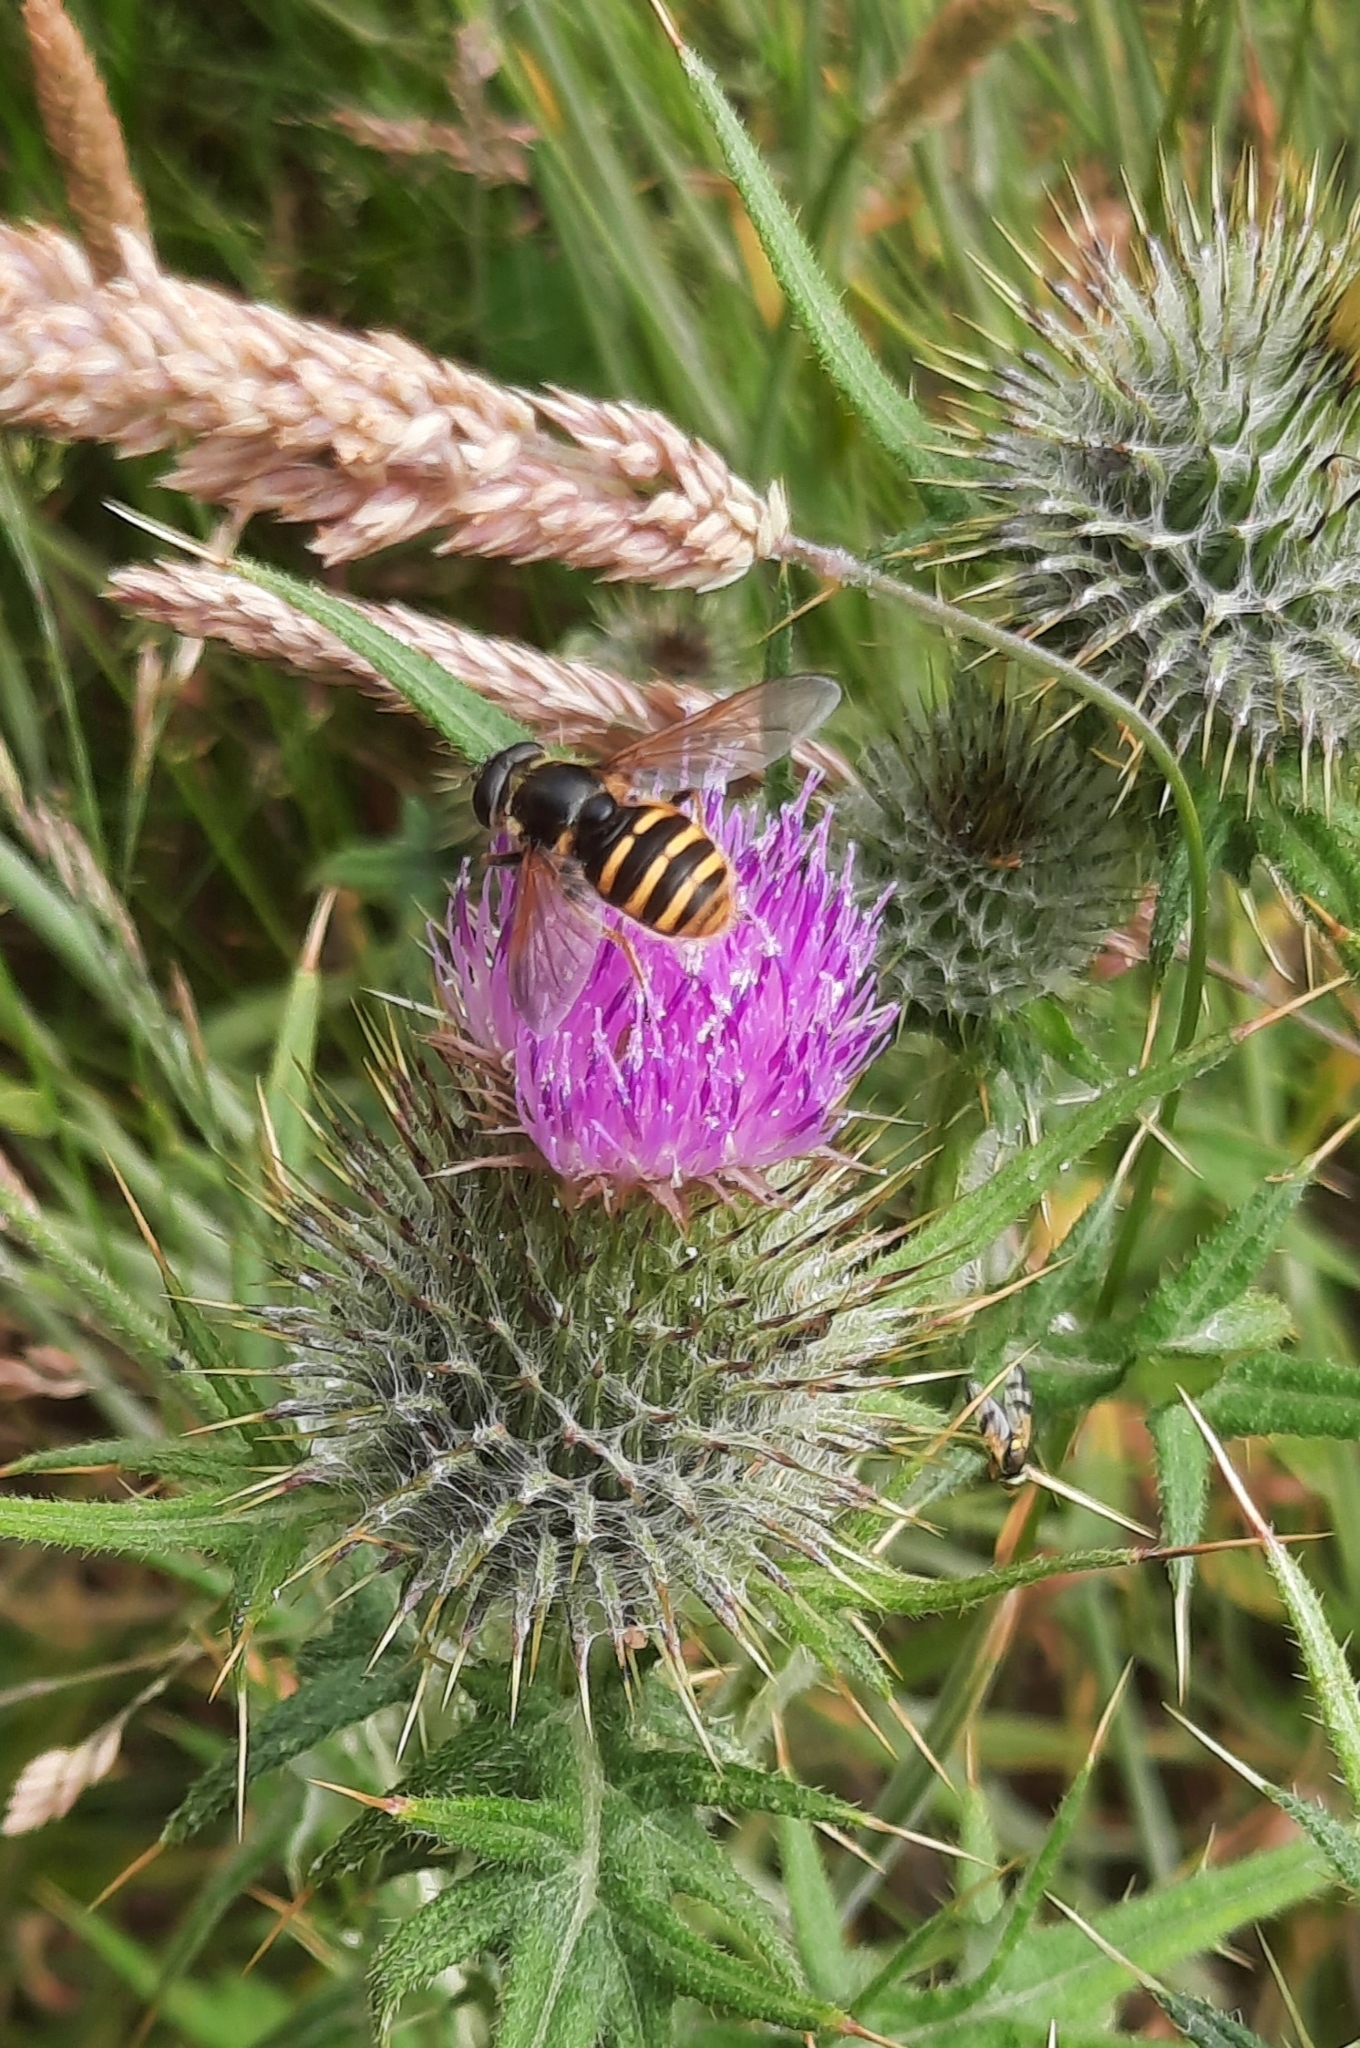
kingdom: Animalia
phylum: Arthropoda
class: Insecta
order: Diptera
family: Syrphidae
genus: Sericomyia
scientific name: Sericomyia silentis
